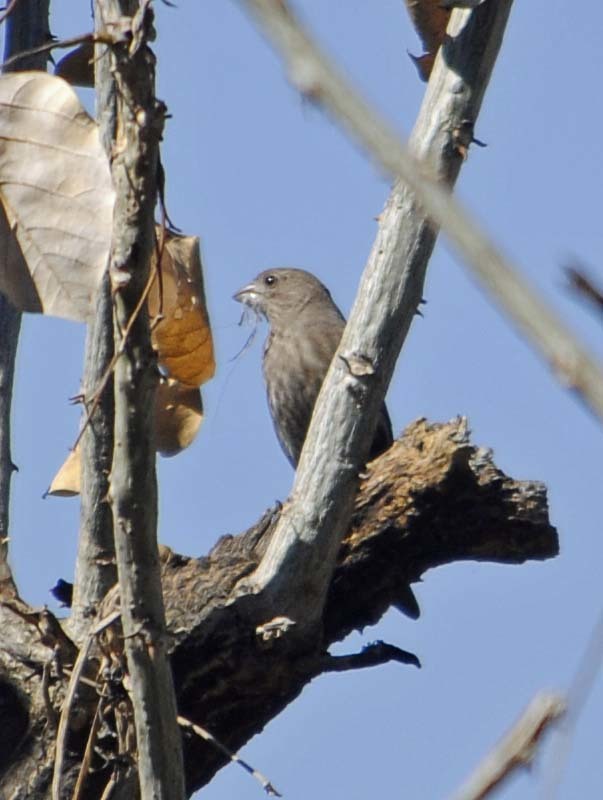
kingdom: Animalia
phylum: Chordata
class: Aves
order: Passeriformes
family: Fringillidae
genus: Haemorhous
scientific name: Haemorhous mexicanus
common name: House finch
